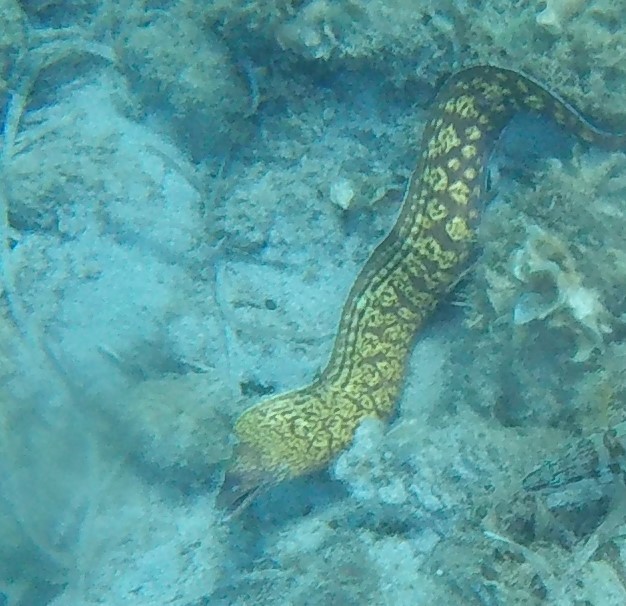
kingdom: Animalia
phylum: Chordata
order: Anguilliformes
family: Muraenidae
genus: Muraena
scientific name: Muraena helena
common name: Mediterranean moray
